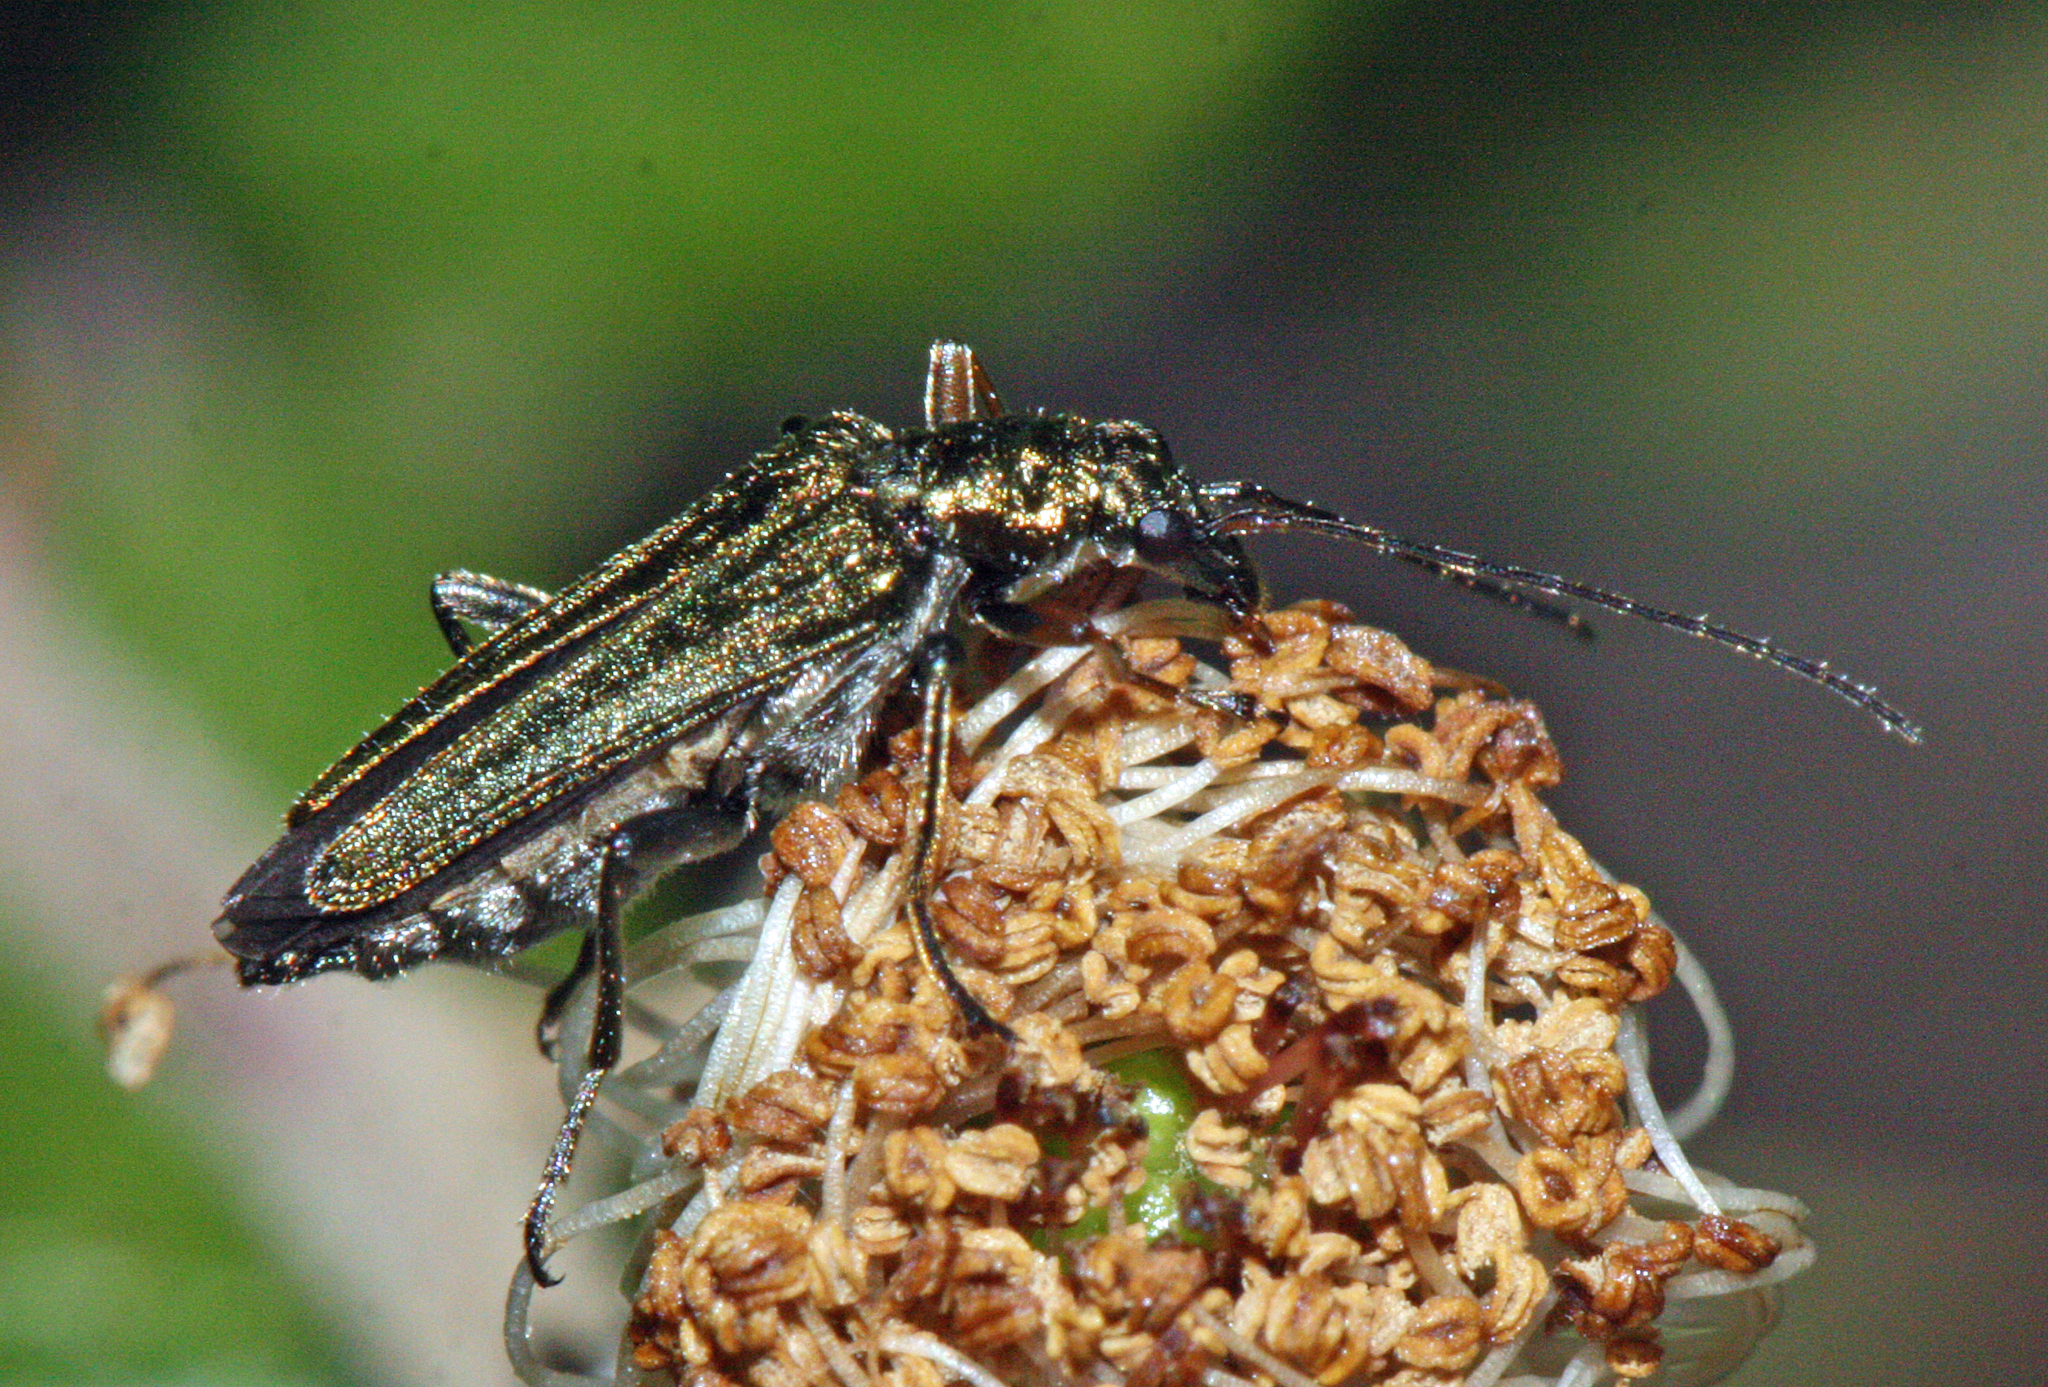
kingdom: Animalia
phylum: Arthropoda
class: Insecta
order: Coleoptera
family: Oedemeridae
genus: Oedemera
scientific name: Oedemera flavipes
